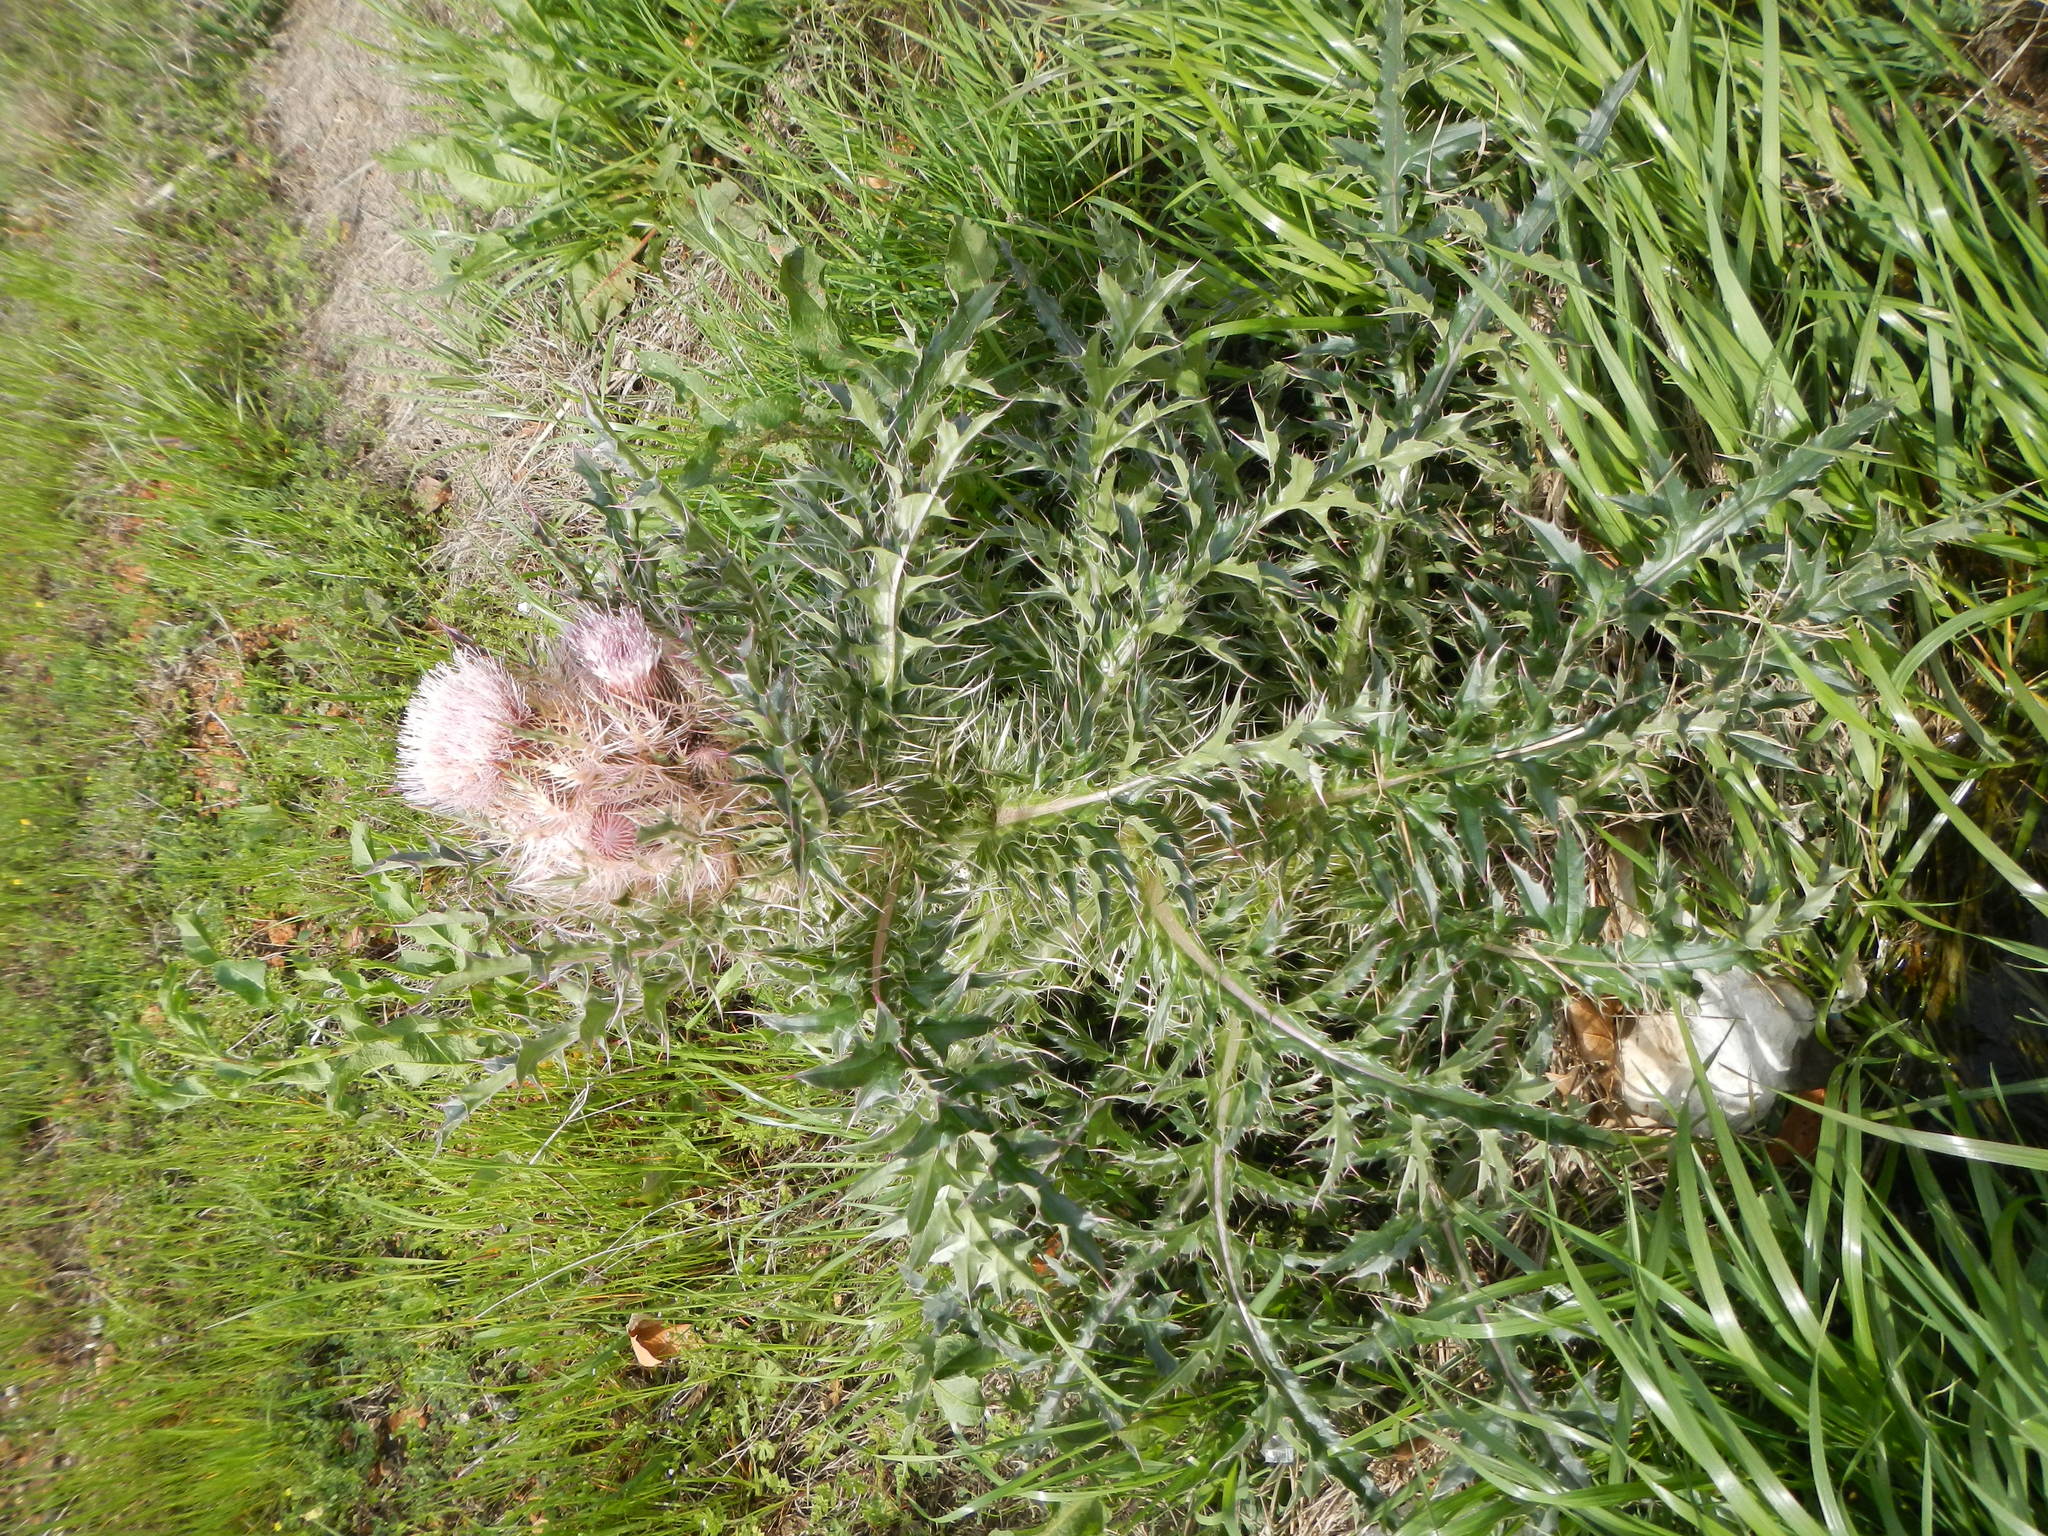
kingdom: Plantae
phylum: Tracheophyta
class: Magnoliopsida
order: Asterales
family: Asteraceae
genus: Cirsium
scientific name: Cirsium horridulum
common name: Bristly thistle
